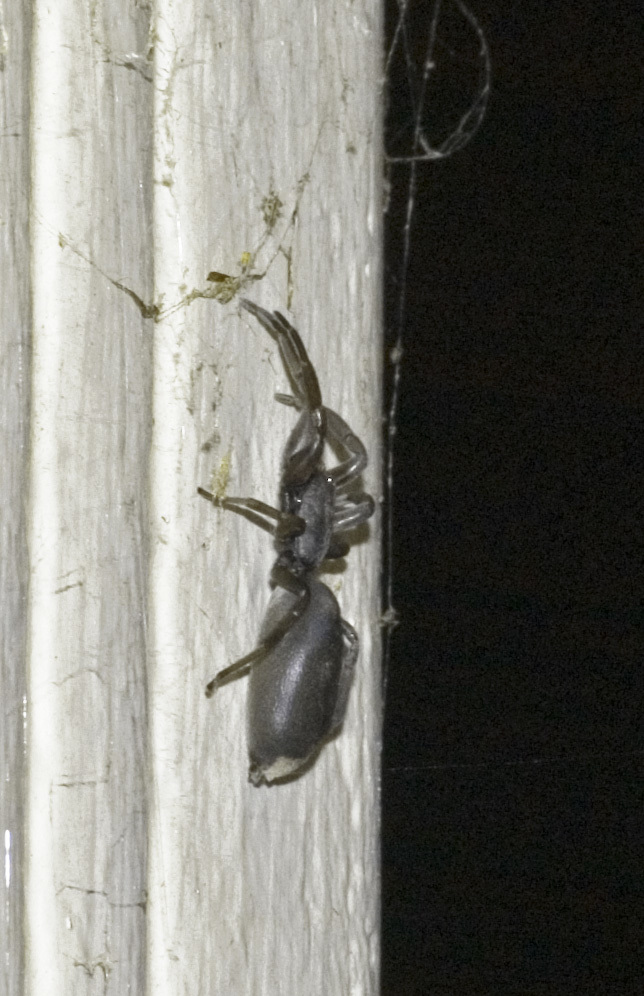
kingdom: Animalia
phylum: Arthropoda
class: Arachnida
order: Araneae
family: Lamponidae
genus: Lampona
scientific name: Lampona murina
